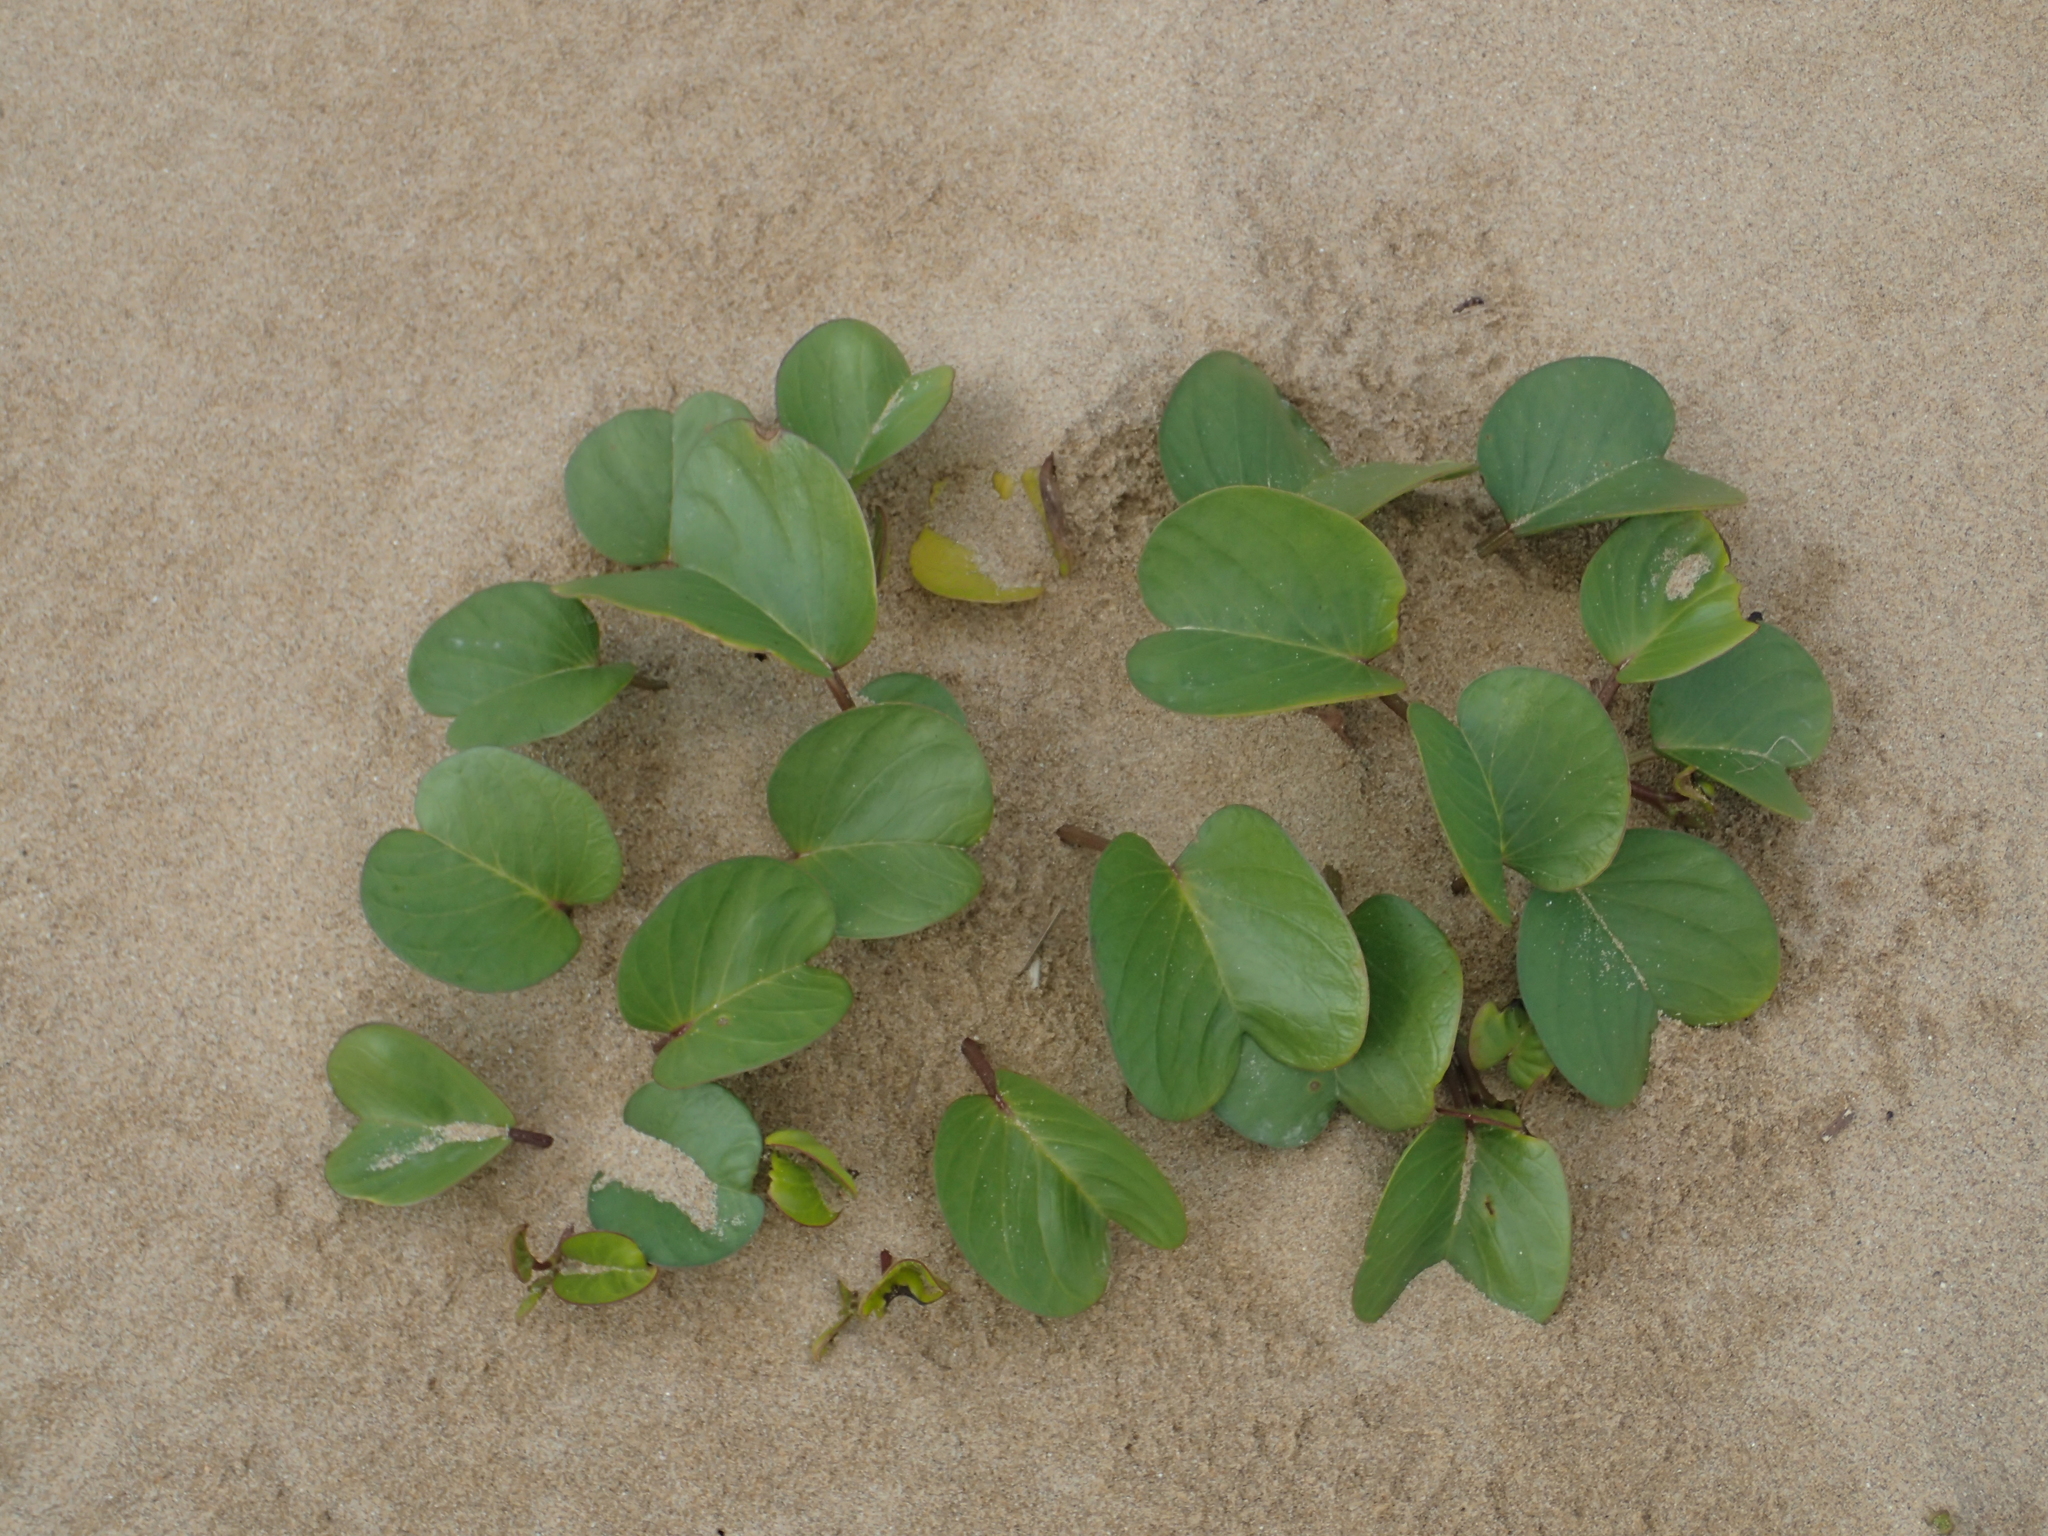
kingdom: Plantae
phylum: Tracheophyta
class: Magnoliopsida
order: Solanales
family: Convolvulaceae
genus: Ipomoea
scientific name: Ipomoea pes-caprae
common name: Beach morning glory
